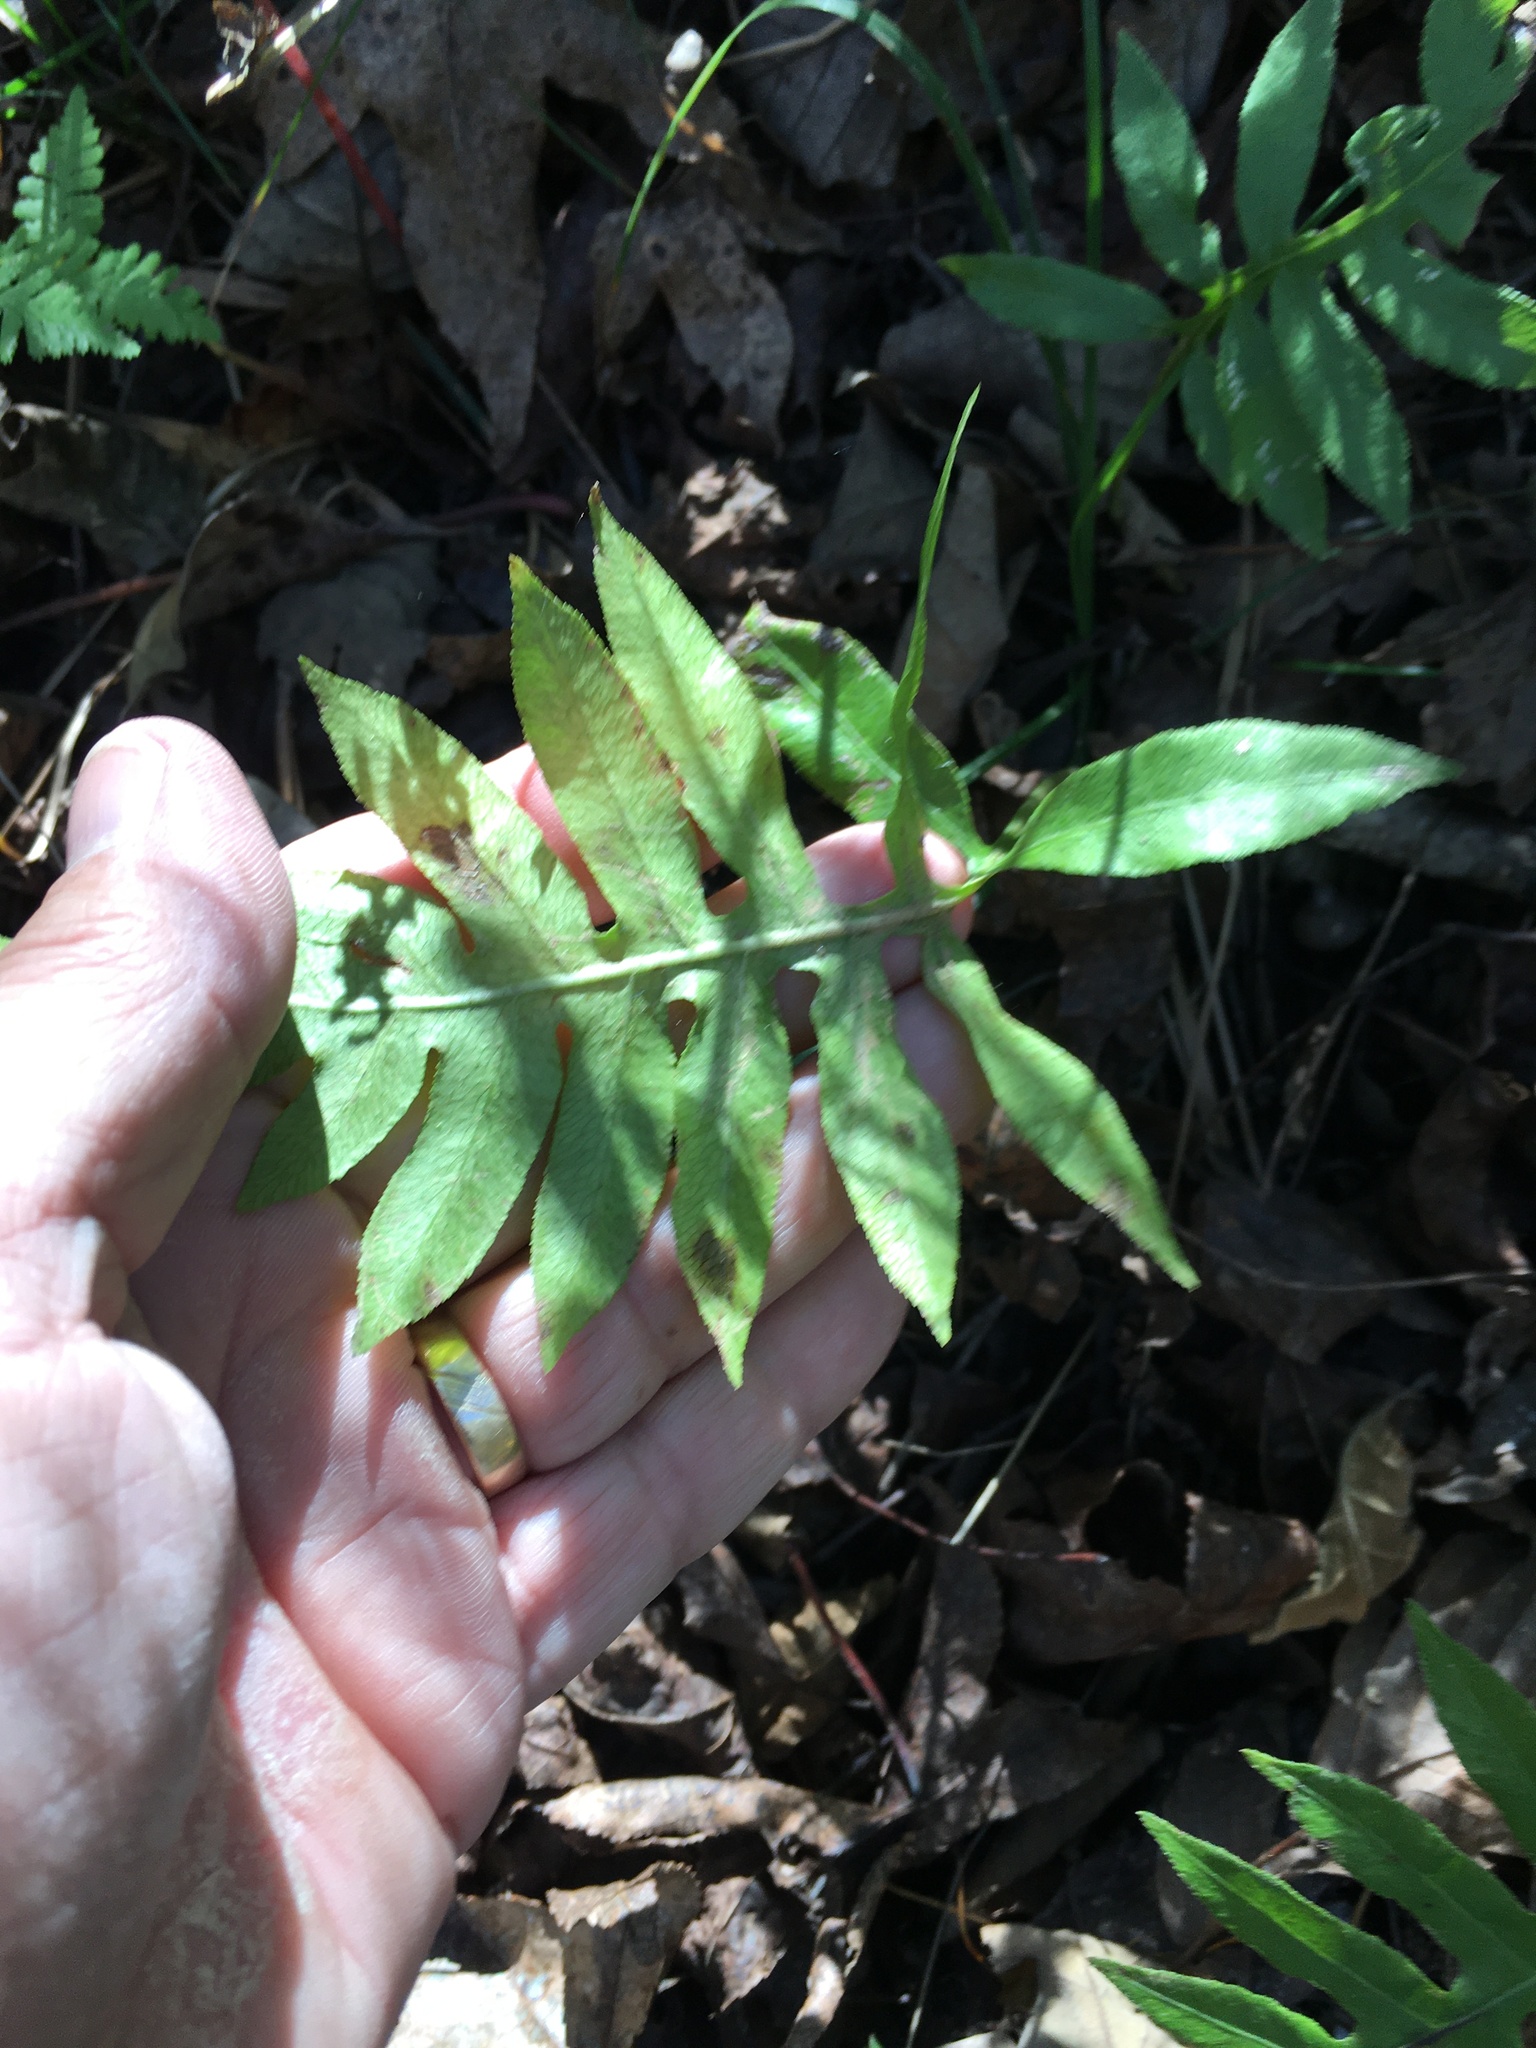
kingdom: Plantae
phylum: Tracheophyta
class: Polypodiopsida
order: Polypodiales
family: Blechnaceae
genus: Lorinseria
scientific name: Lorinseria areolata
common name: Dwarf chain fern
